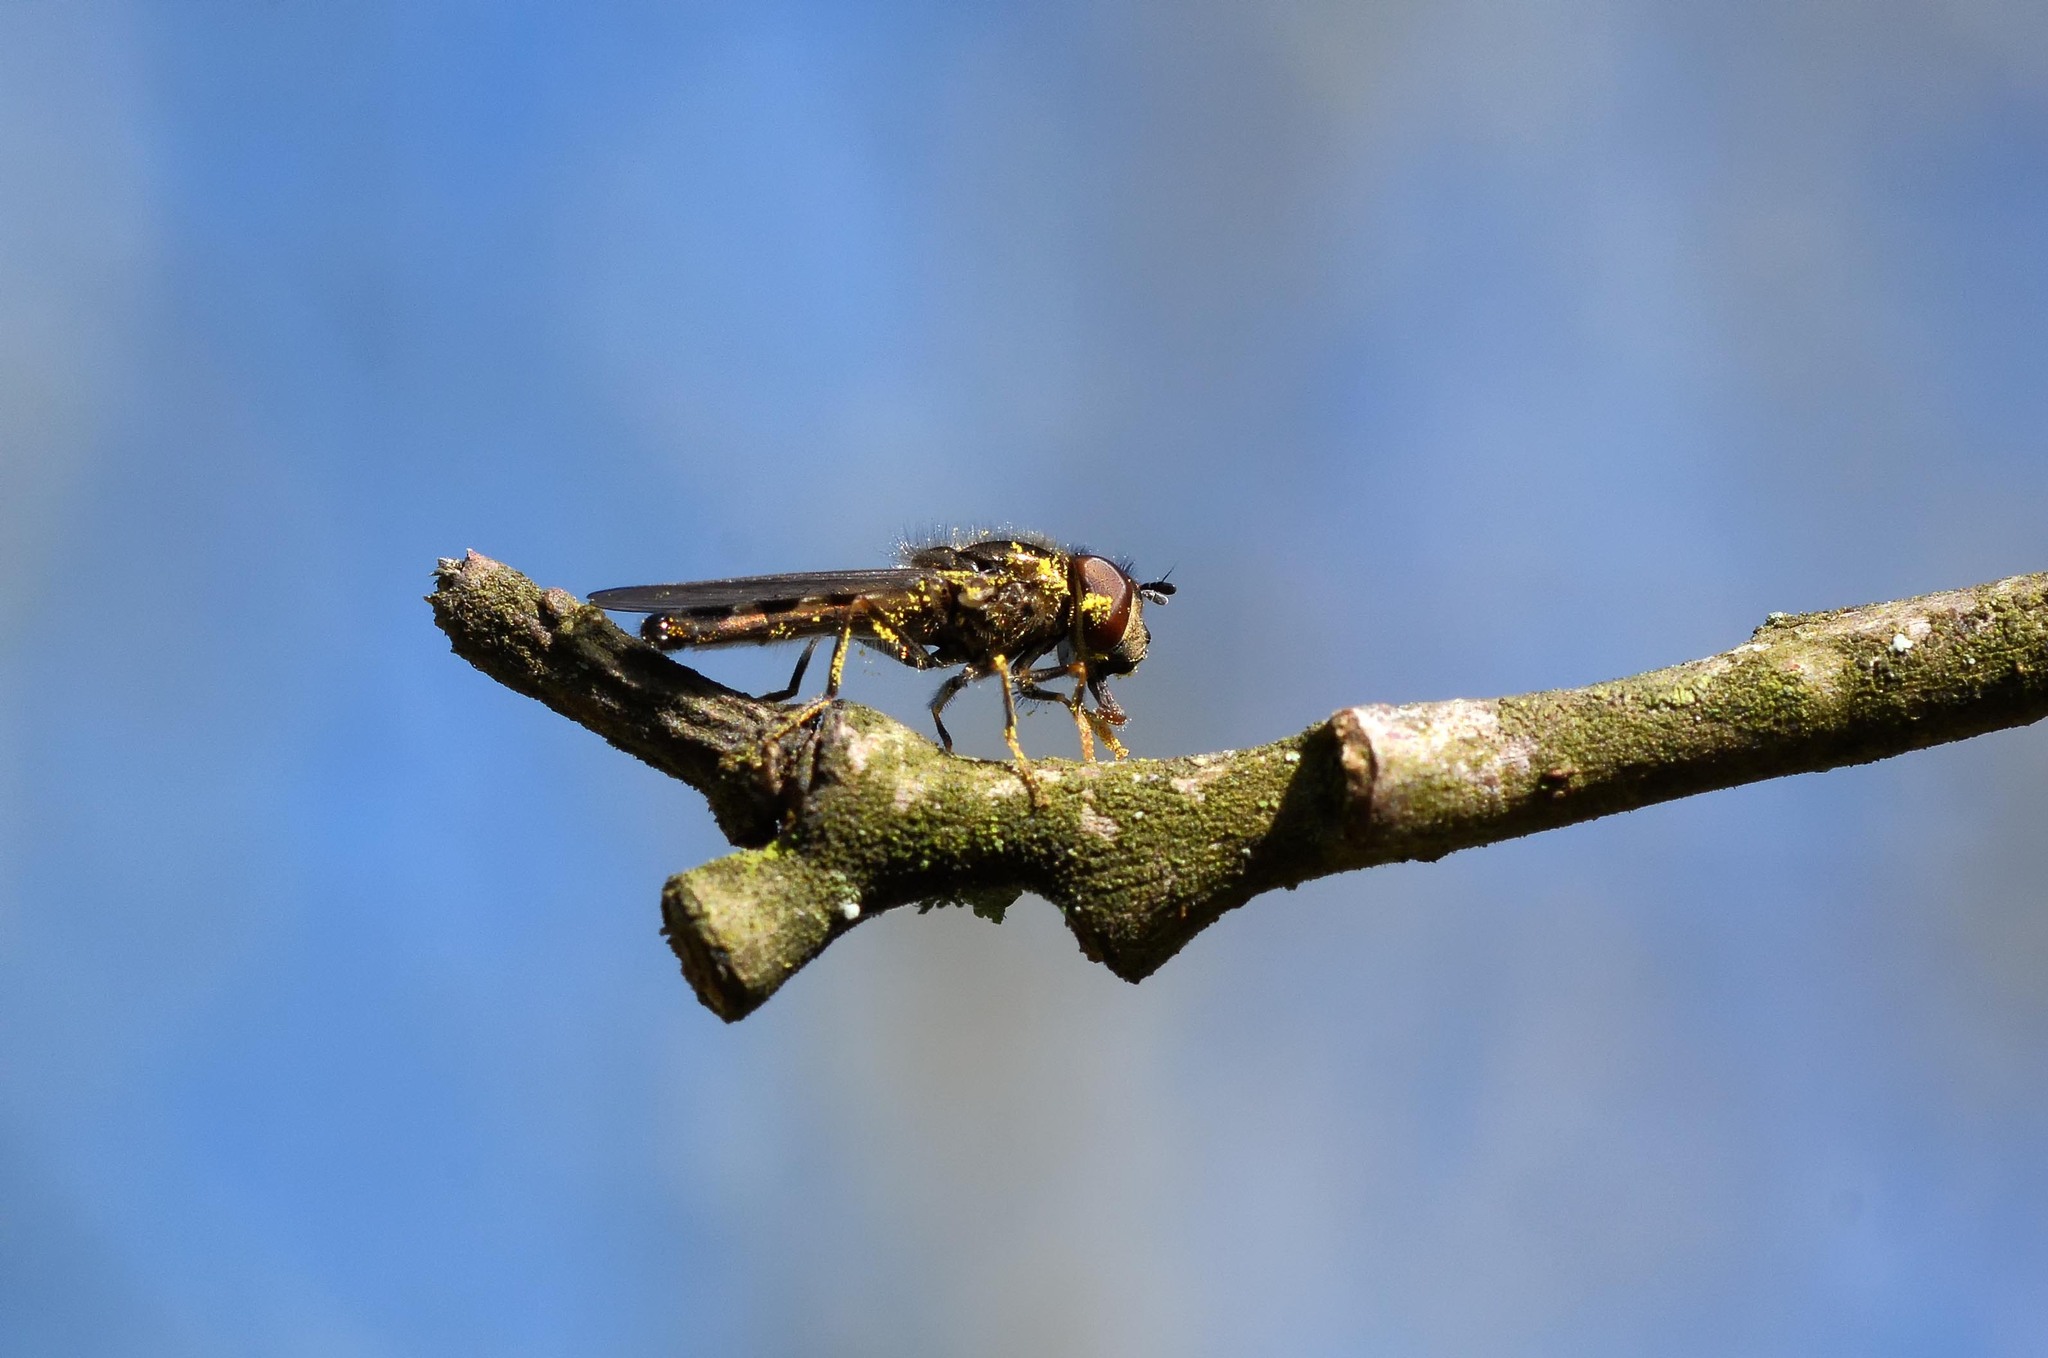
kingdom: Animalia
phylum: Arthropoda
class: Insecta
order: Diptera
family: Syrphidae
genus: Platycheirus
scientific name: Platycheirus albimanus
